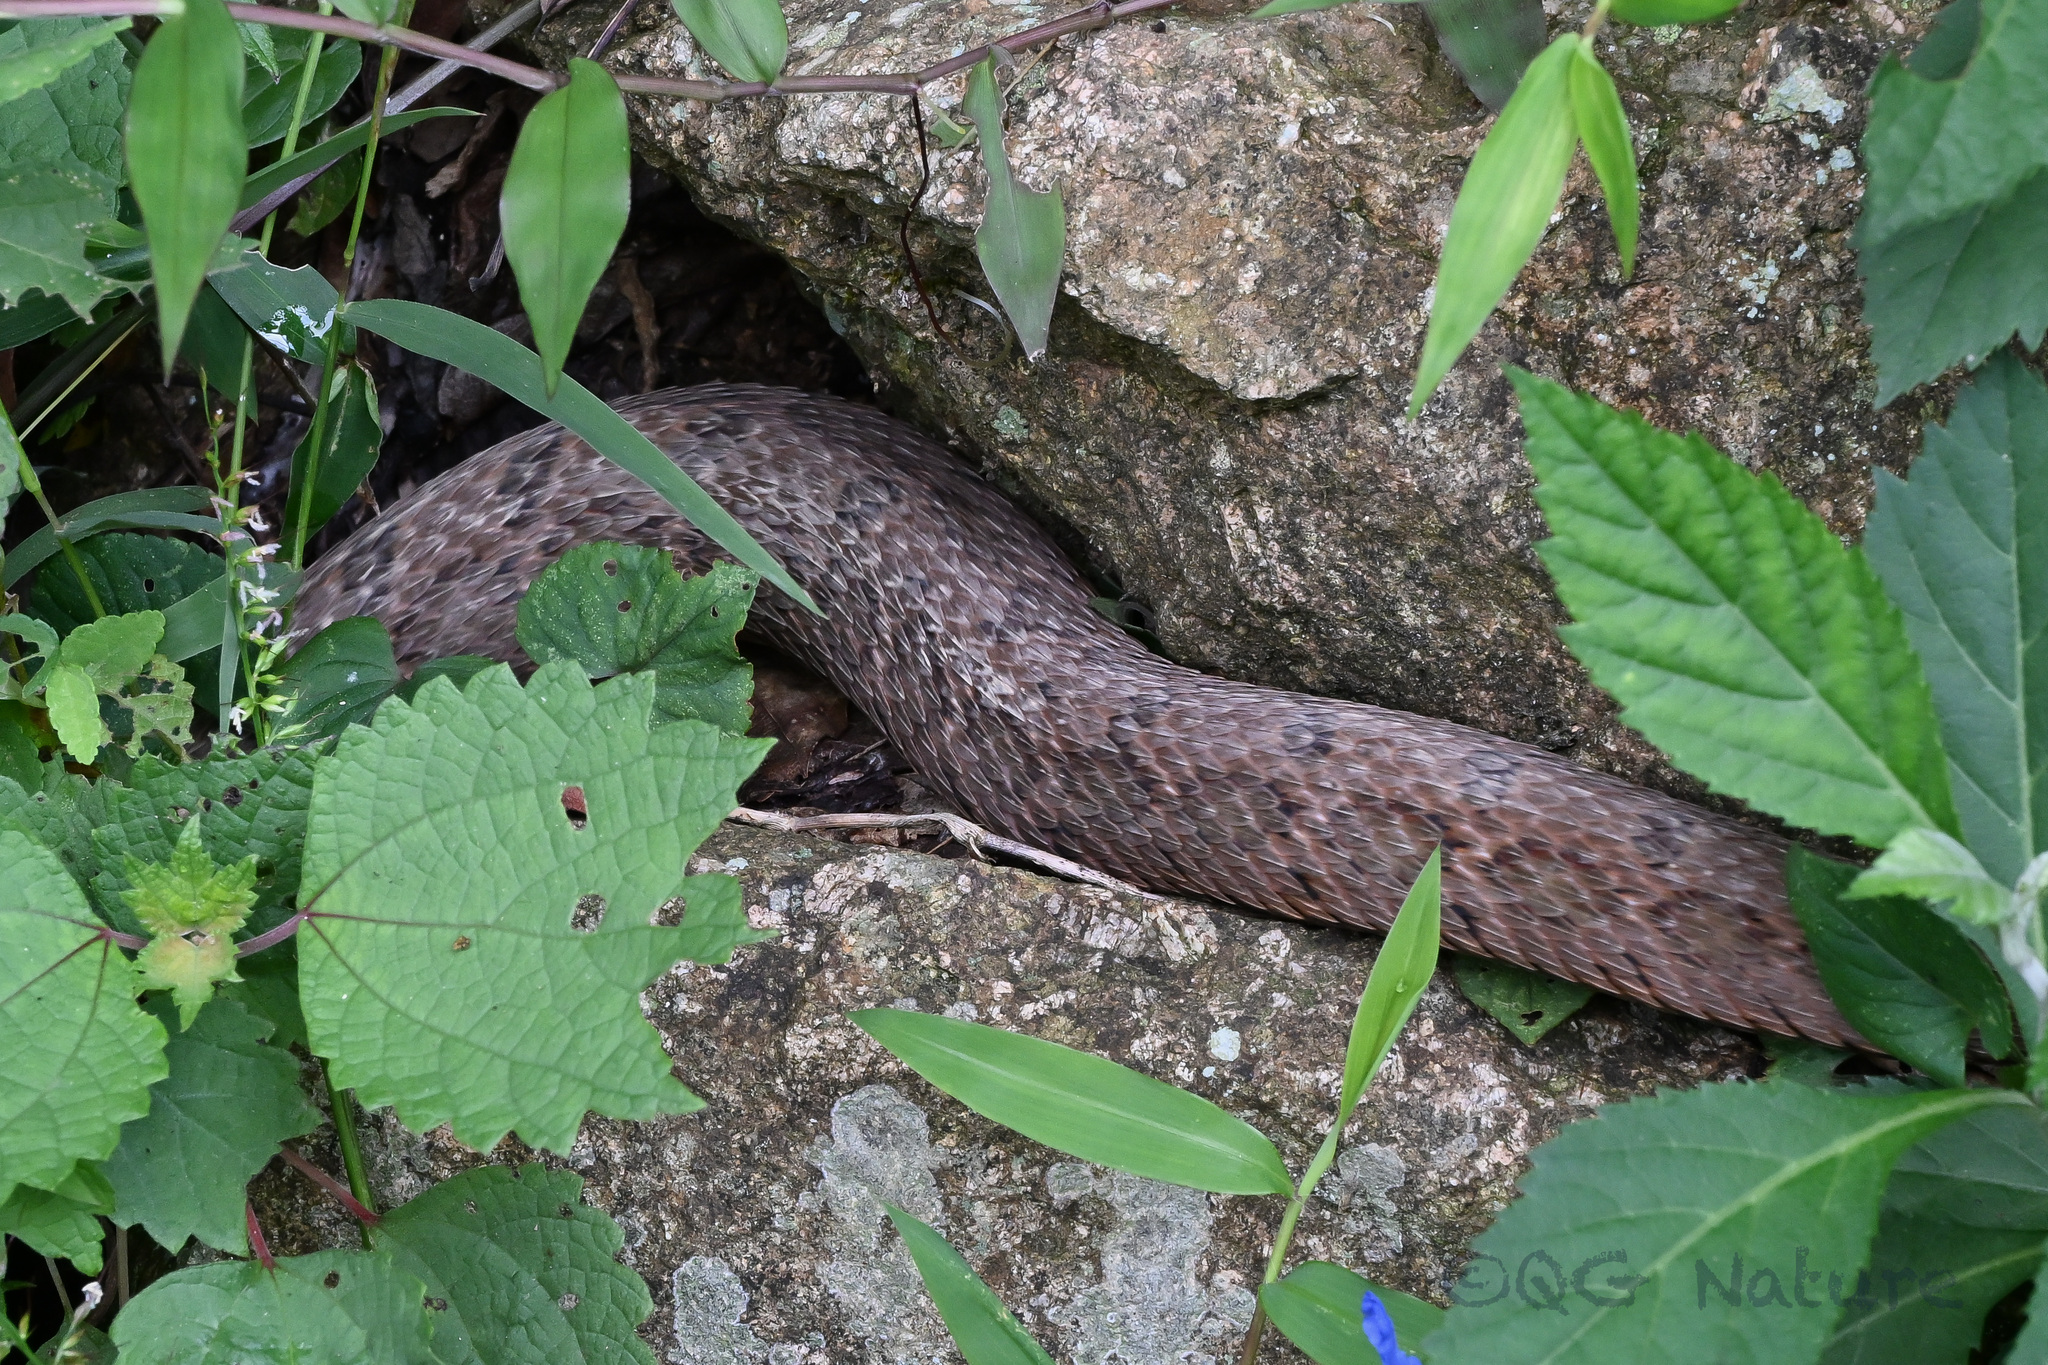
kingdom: Animalia
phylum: Chordata
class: Squamata
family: Colubridae
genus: Pseudagkistrodon
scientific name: Pseudagkistrodon rudis
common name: False habu
